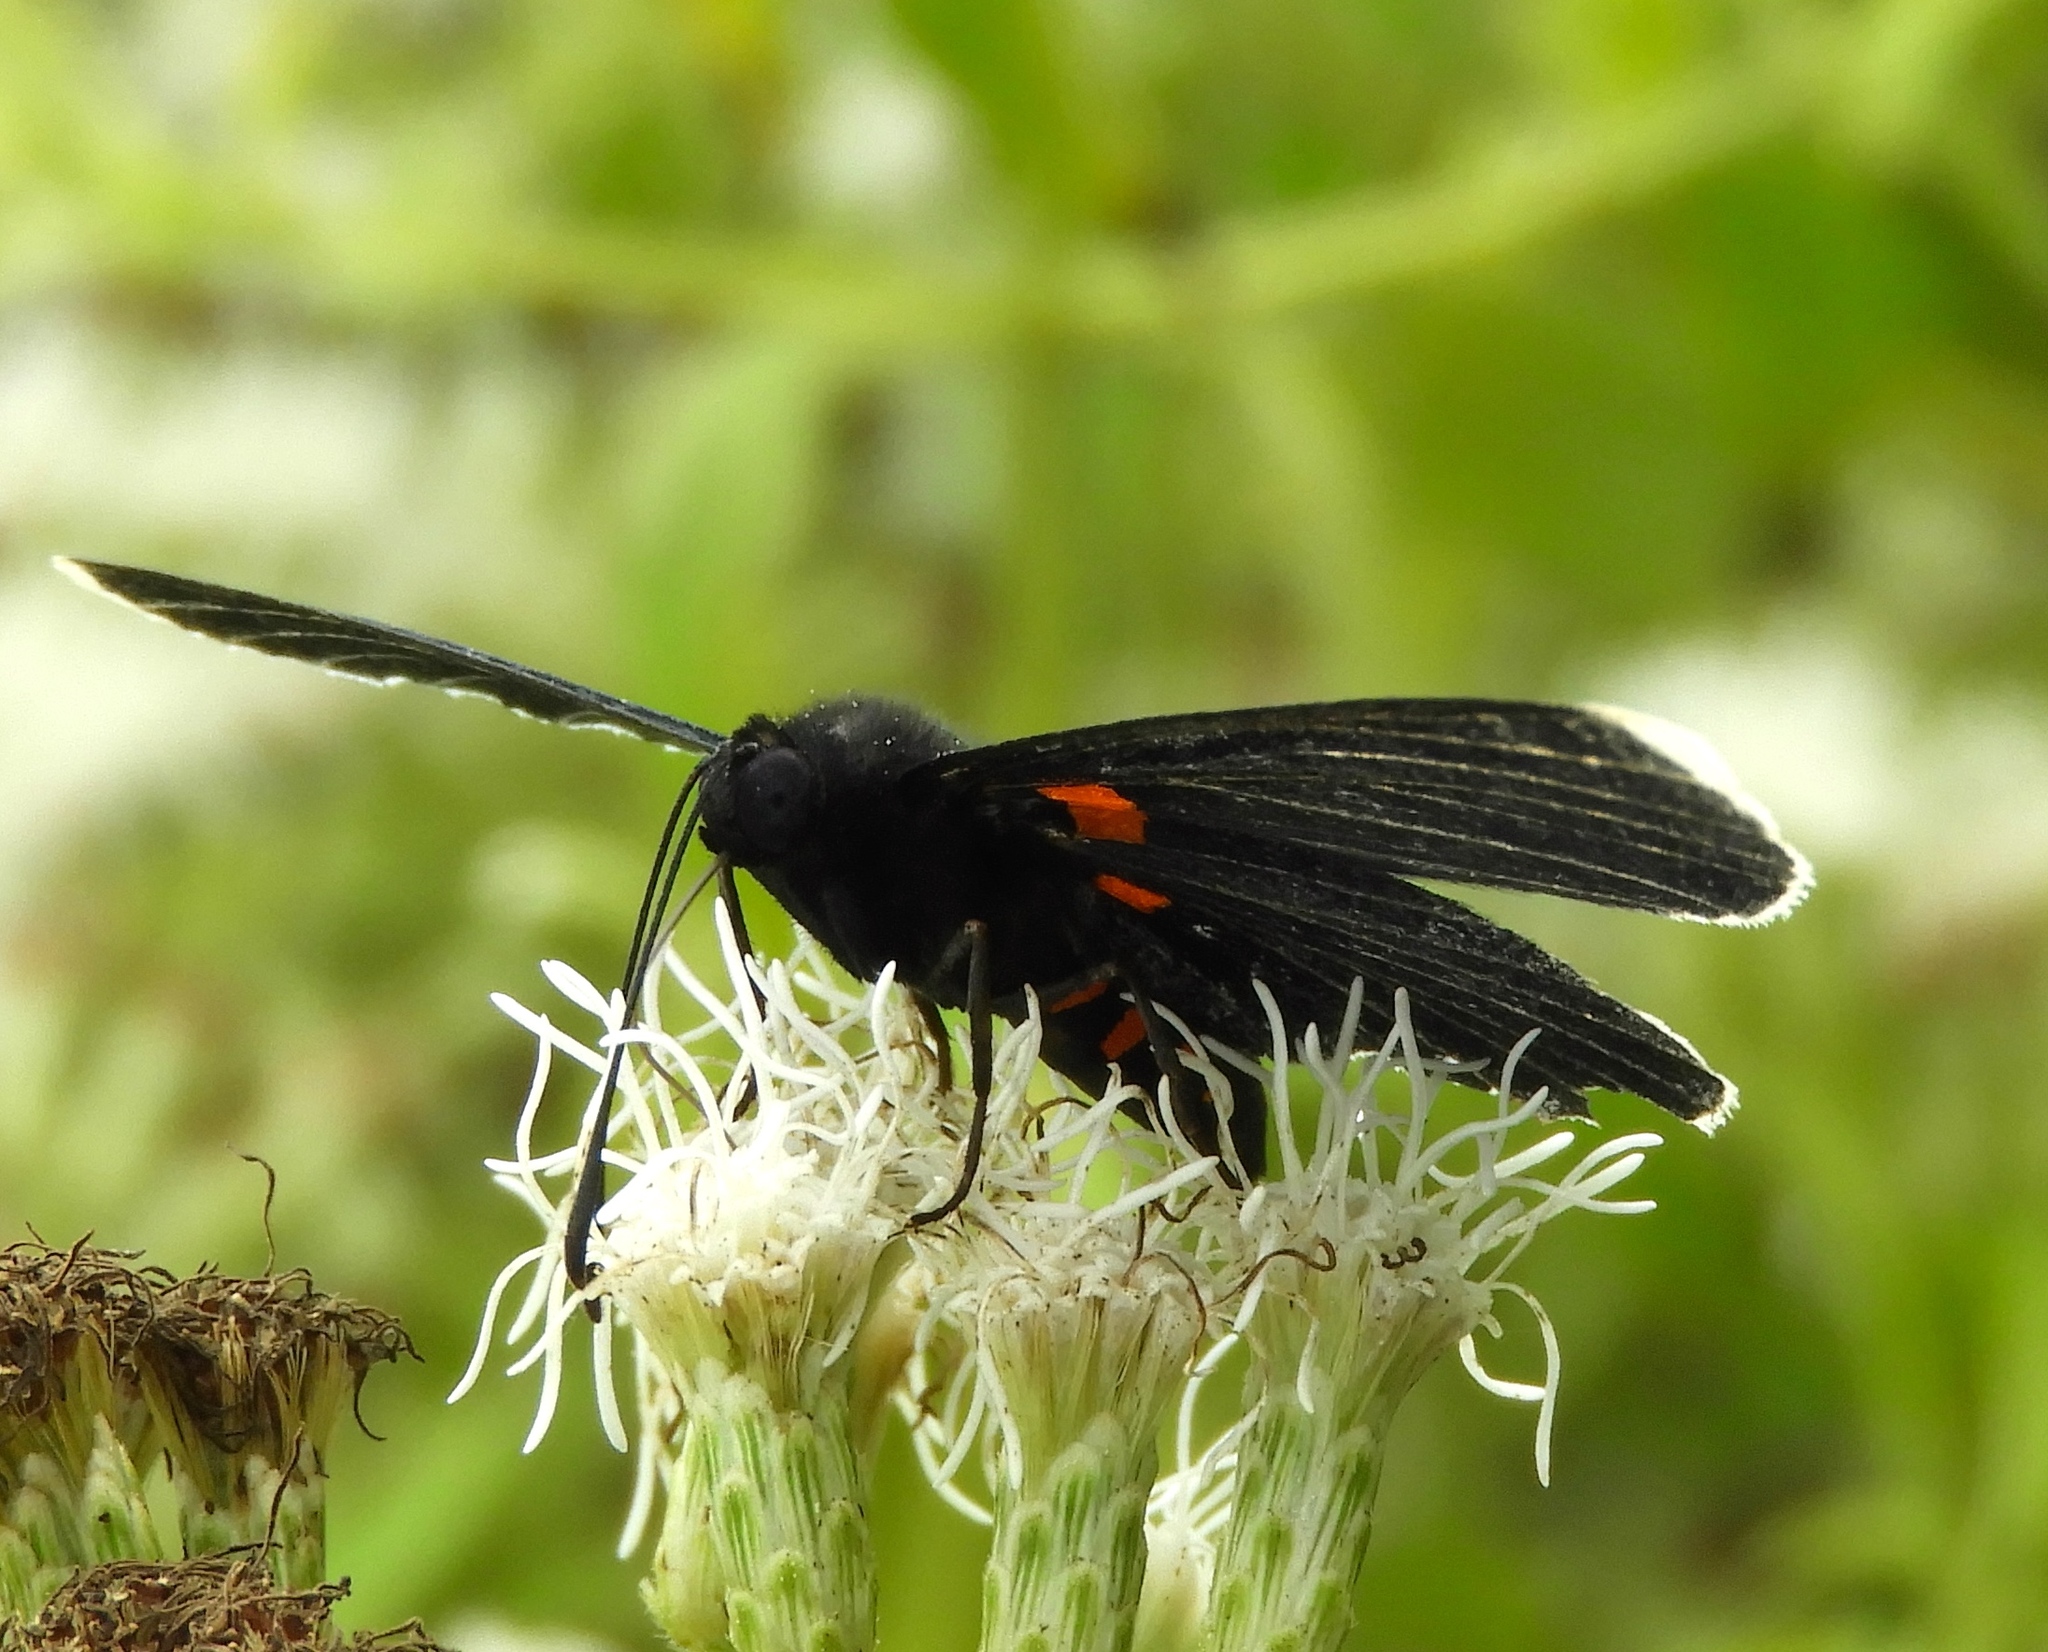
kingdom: Animalia
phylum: Arthropoda
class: Insecta
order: Lepidoptera
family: Lycaenidae
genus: Melanis
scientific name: Melanis
